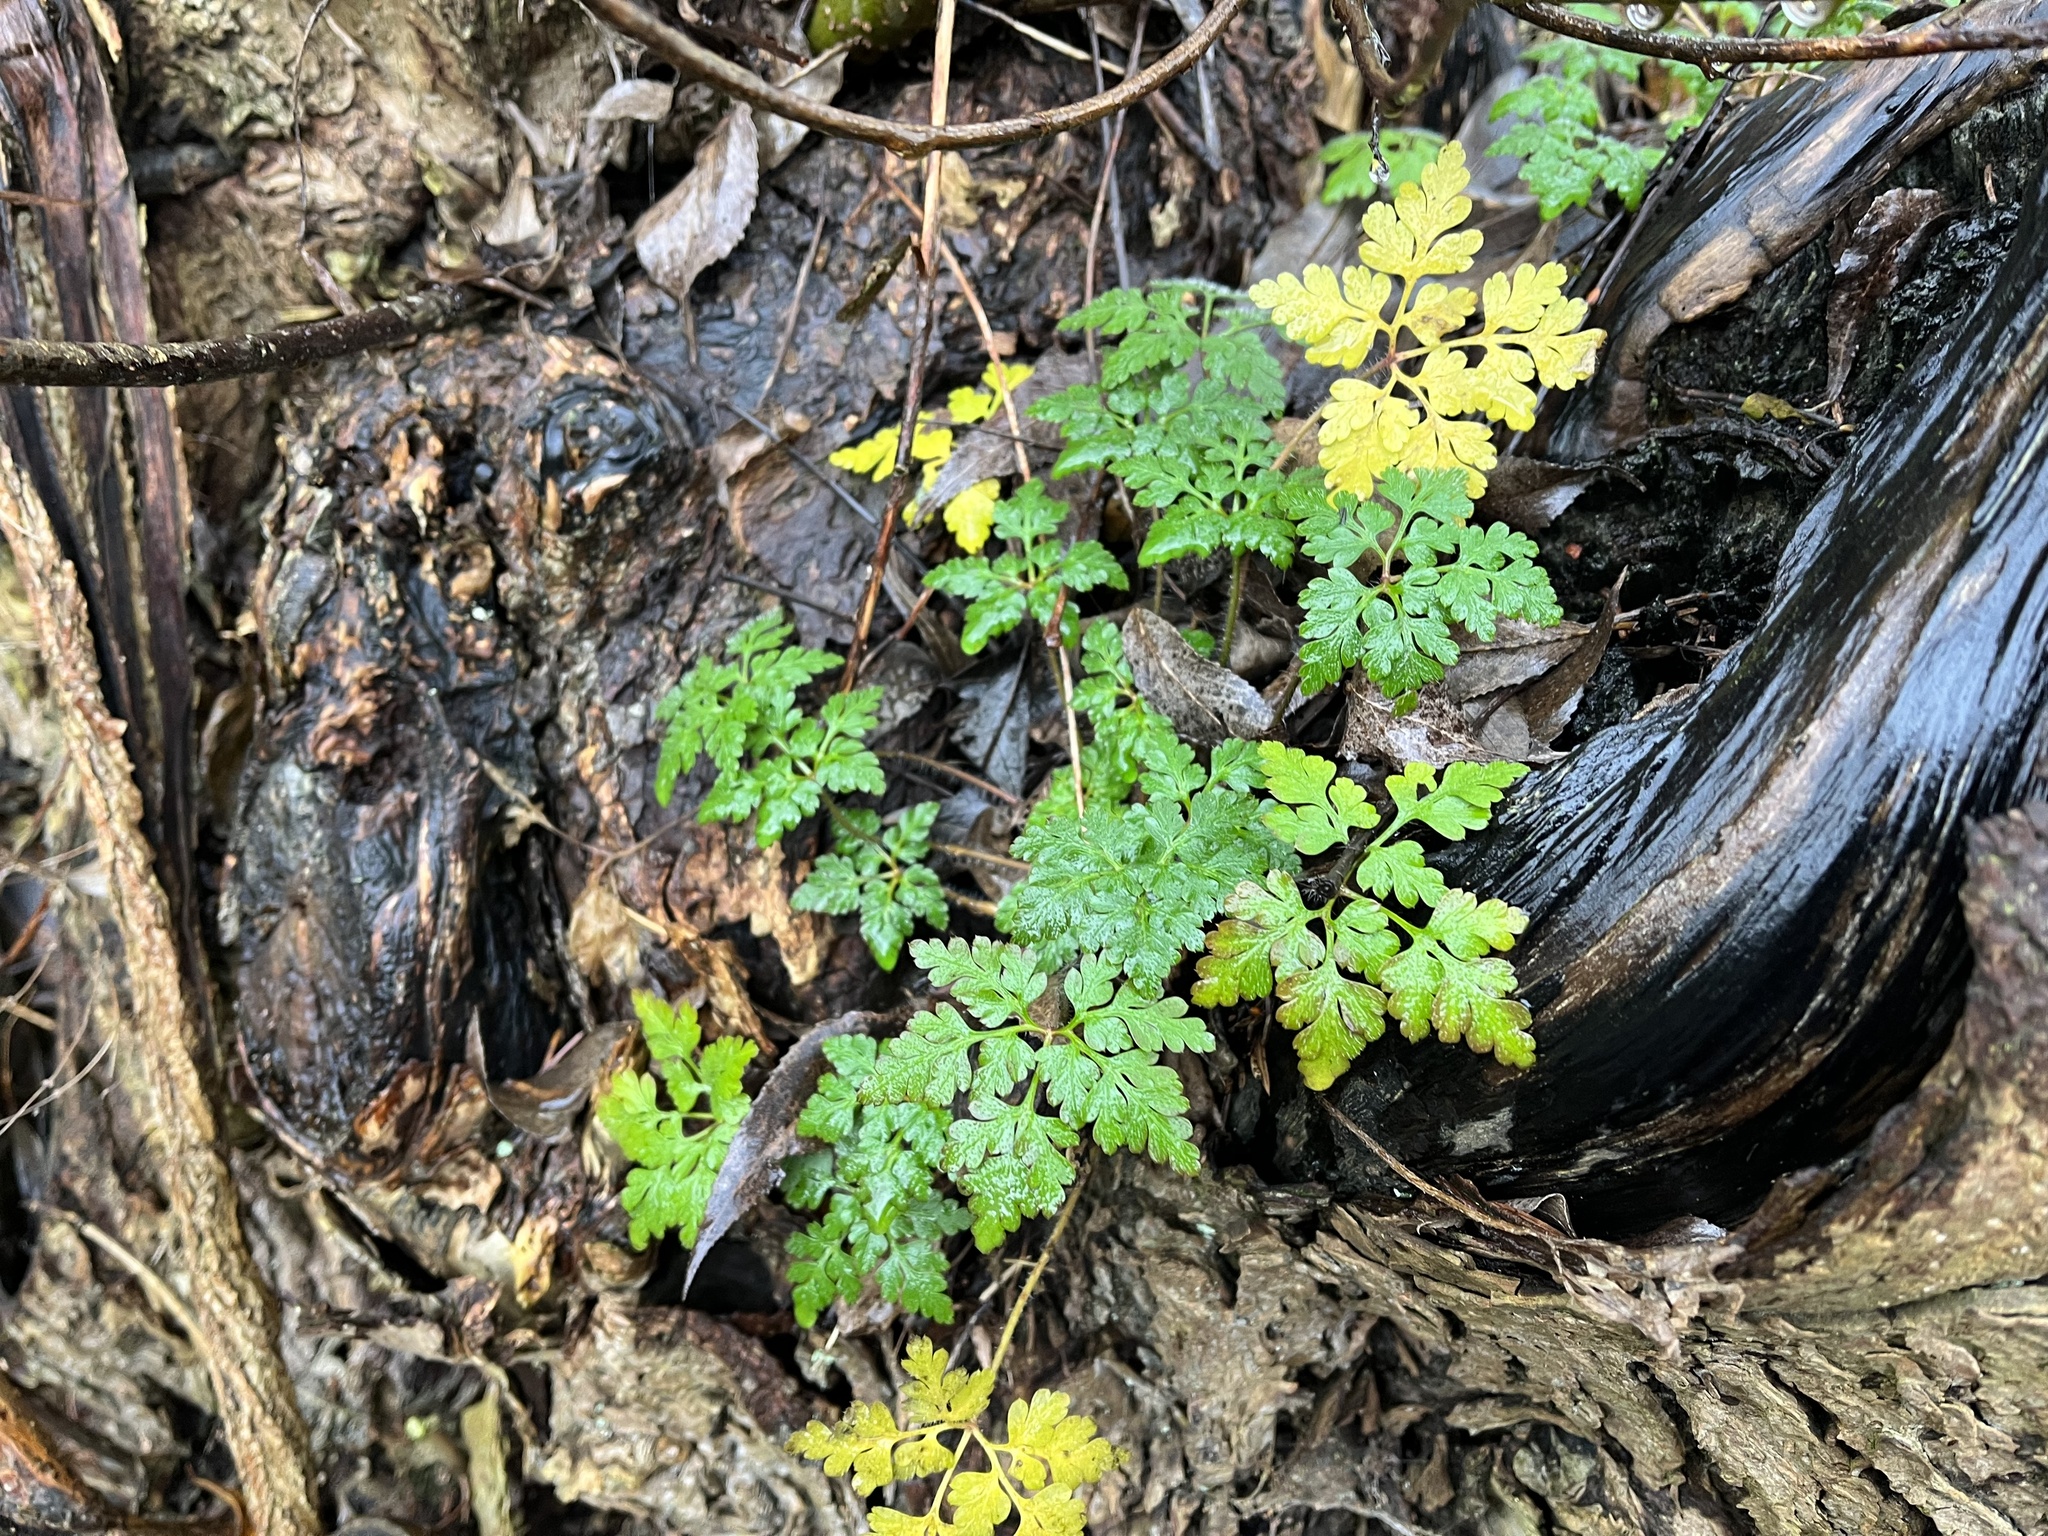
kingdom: Plantae
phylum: Tracheophyta
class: Magnoliopsida
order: Geraniales
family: Geraniaceae
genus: Geranium
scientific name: Geranium robertianum
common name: Herb-robert
